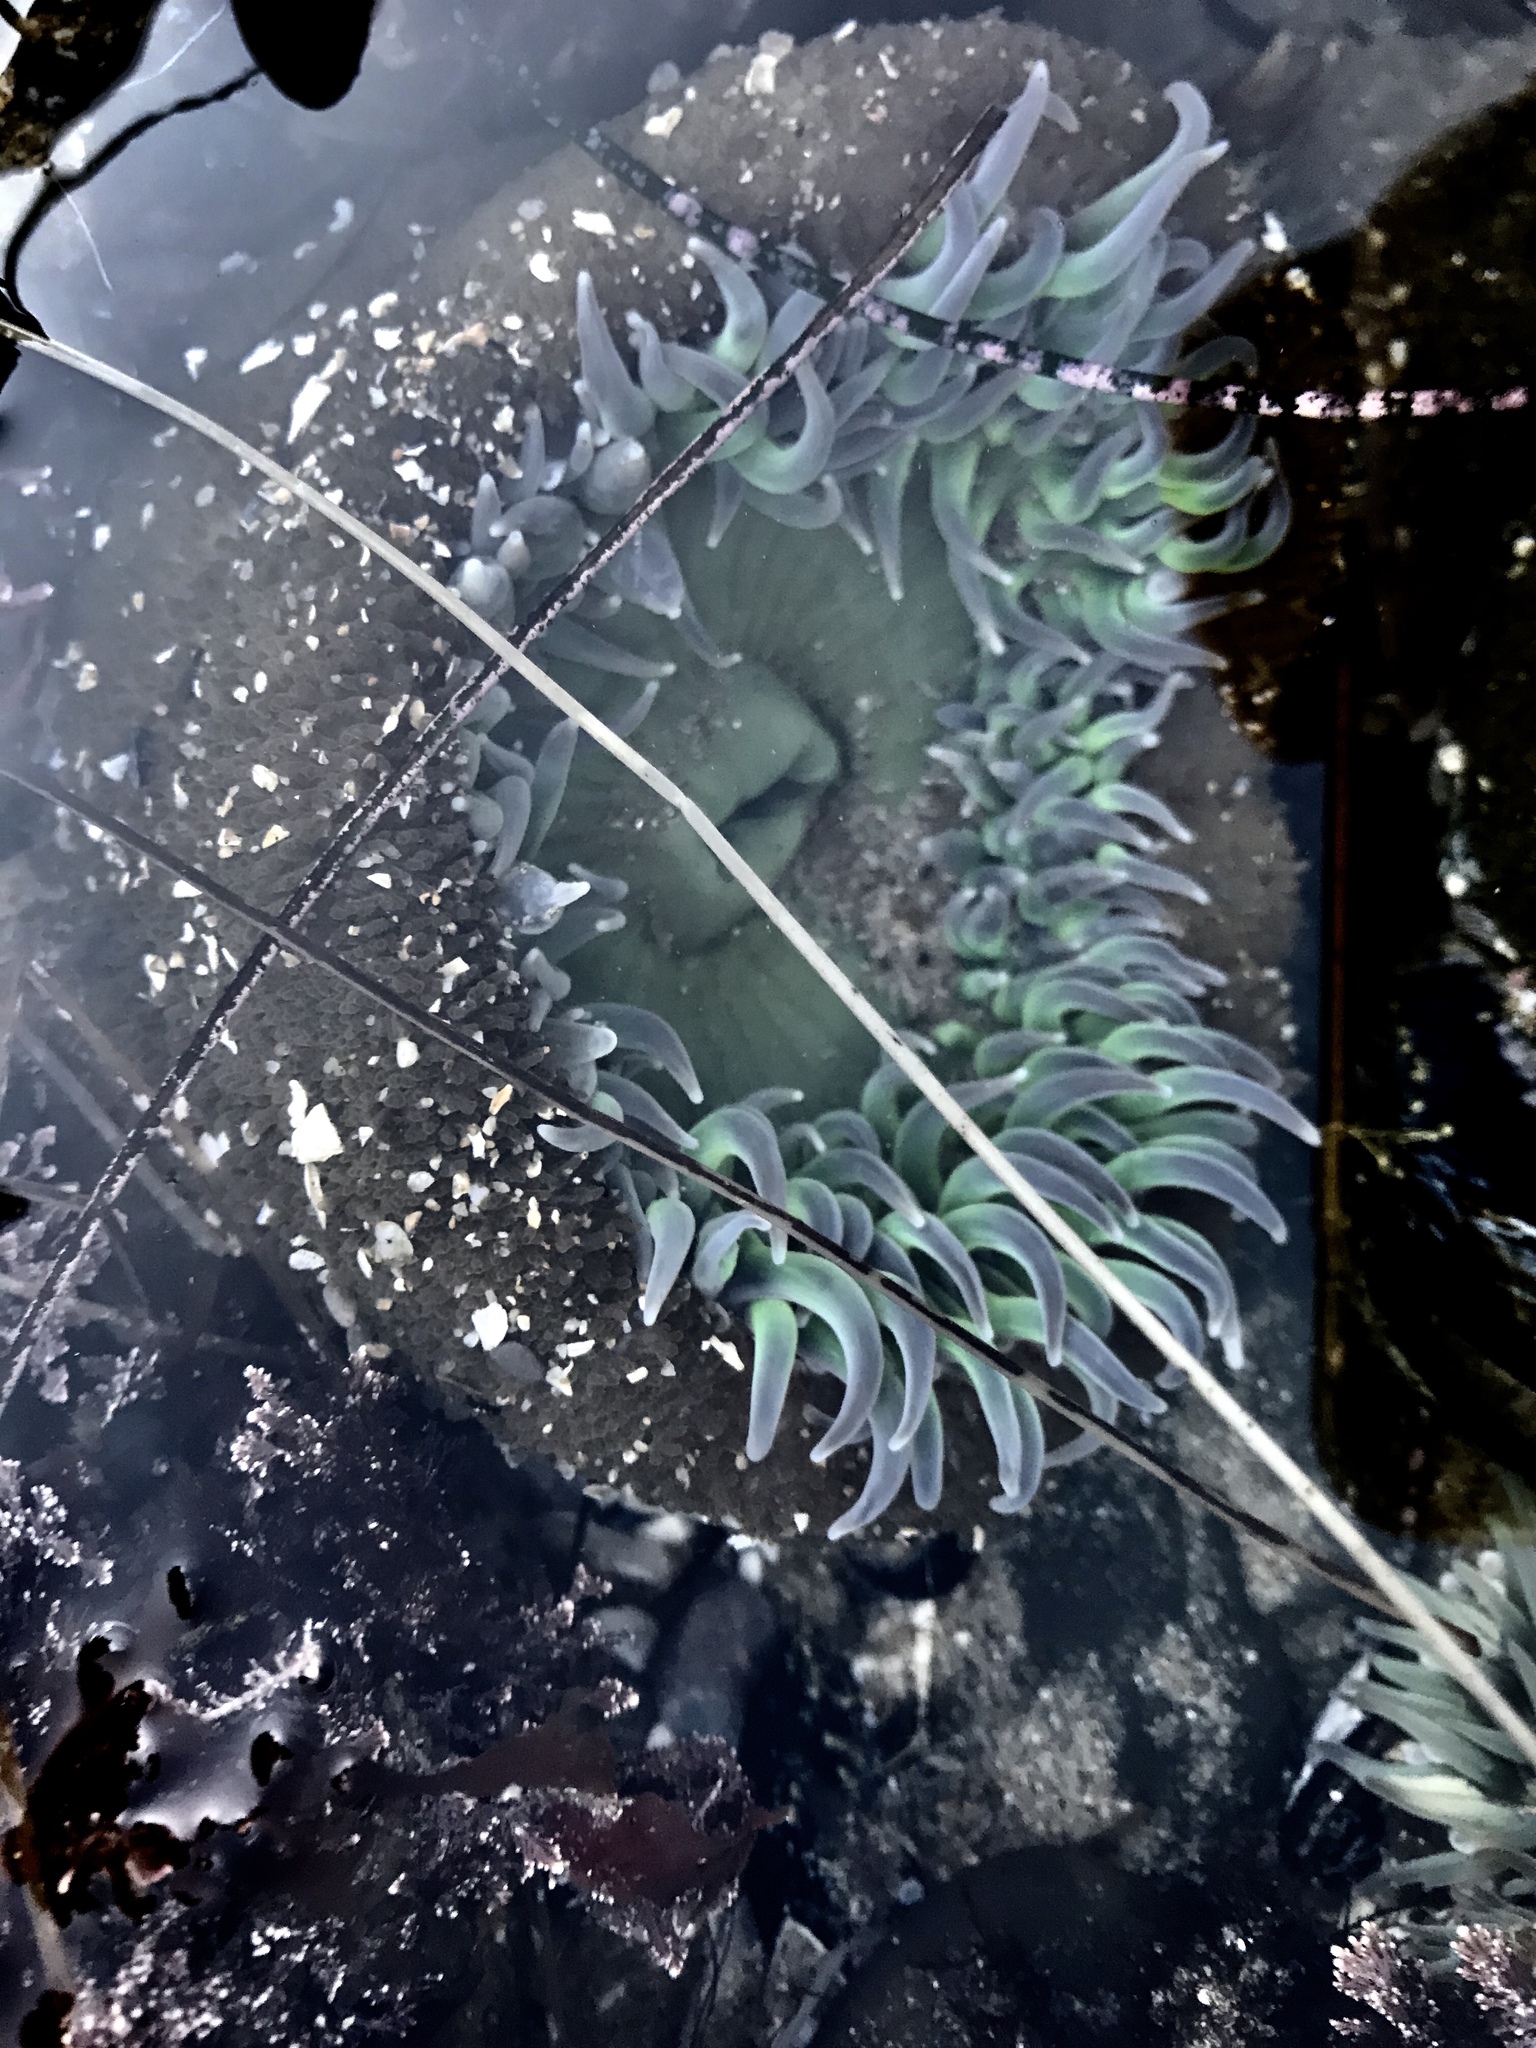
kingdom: Animalia
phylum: Cnidaria
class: Anthozoa
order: Actiniaria
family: Actiniidae
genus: Anthopleura
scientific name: Anthopleura xanthogrammica
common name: Giant green anemone
